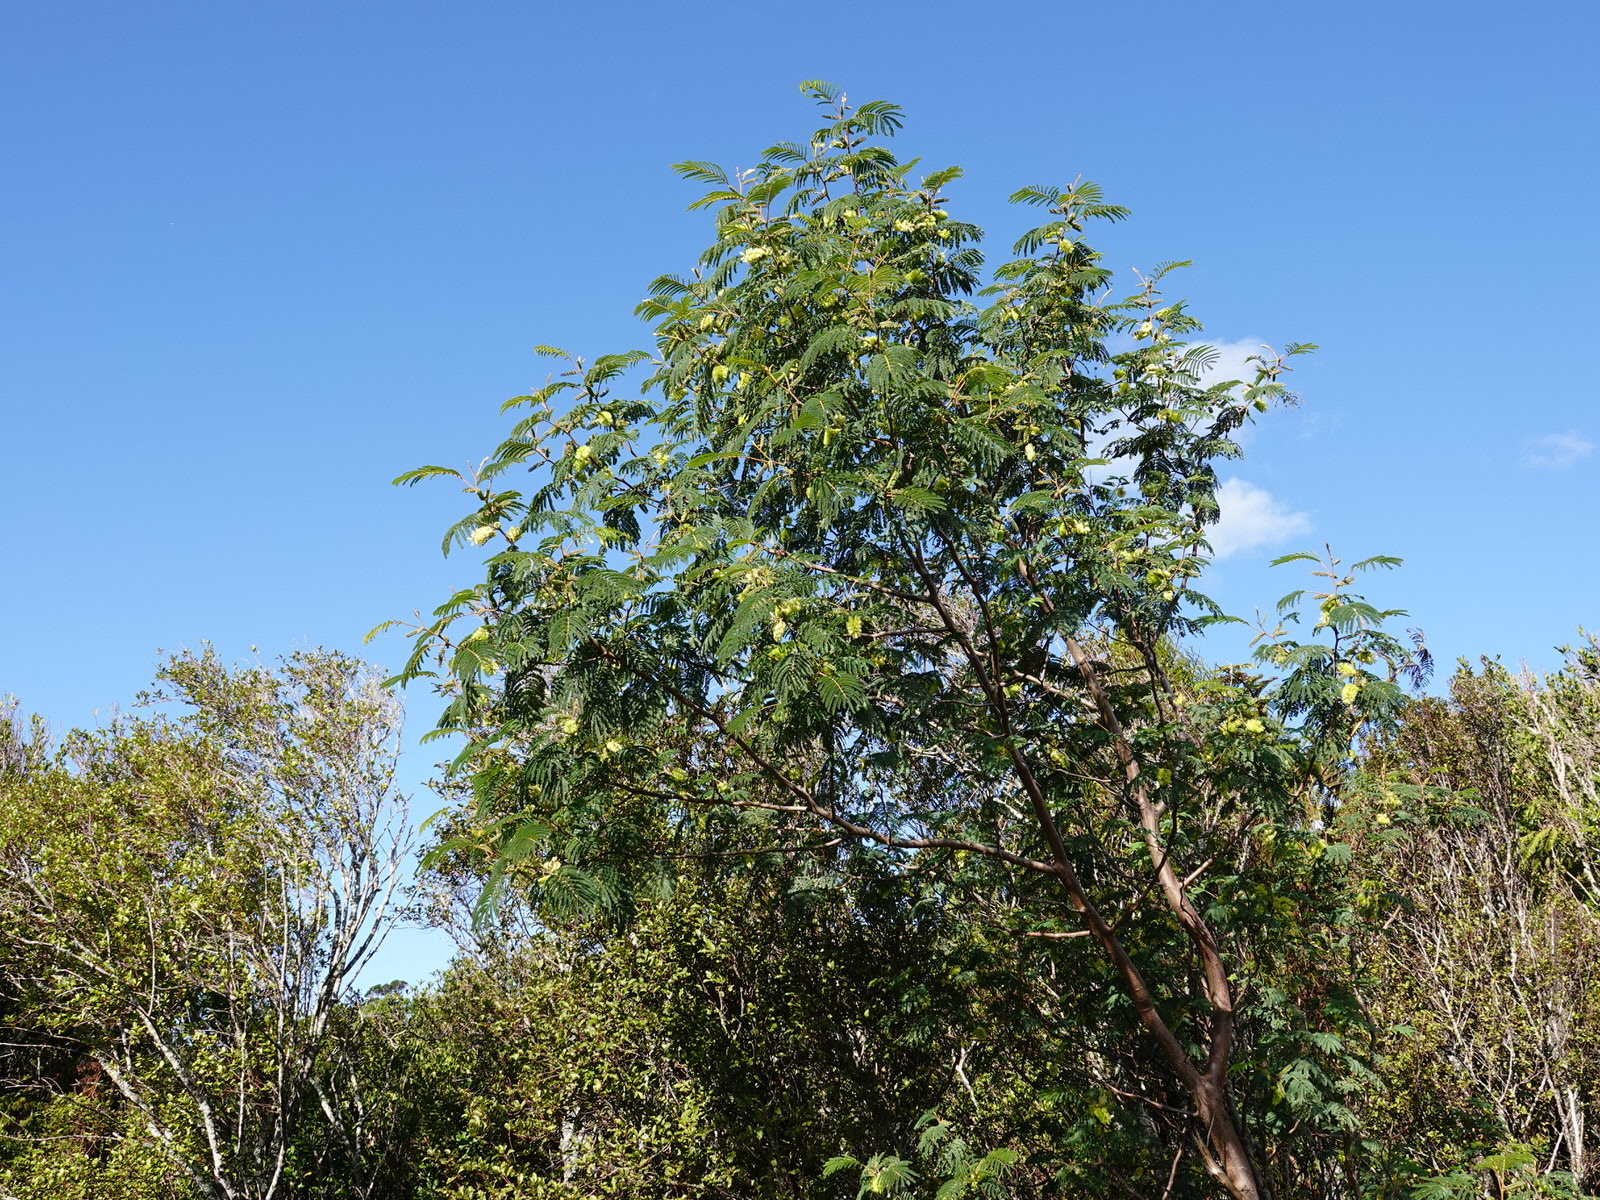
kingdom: Plantae
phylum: Tracheophyta
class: Magnoliopsida
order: Fabales
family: Fabaceae
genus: Paraserianthes
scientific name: Paraserianthes lophantha
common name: Plume albizia
